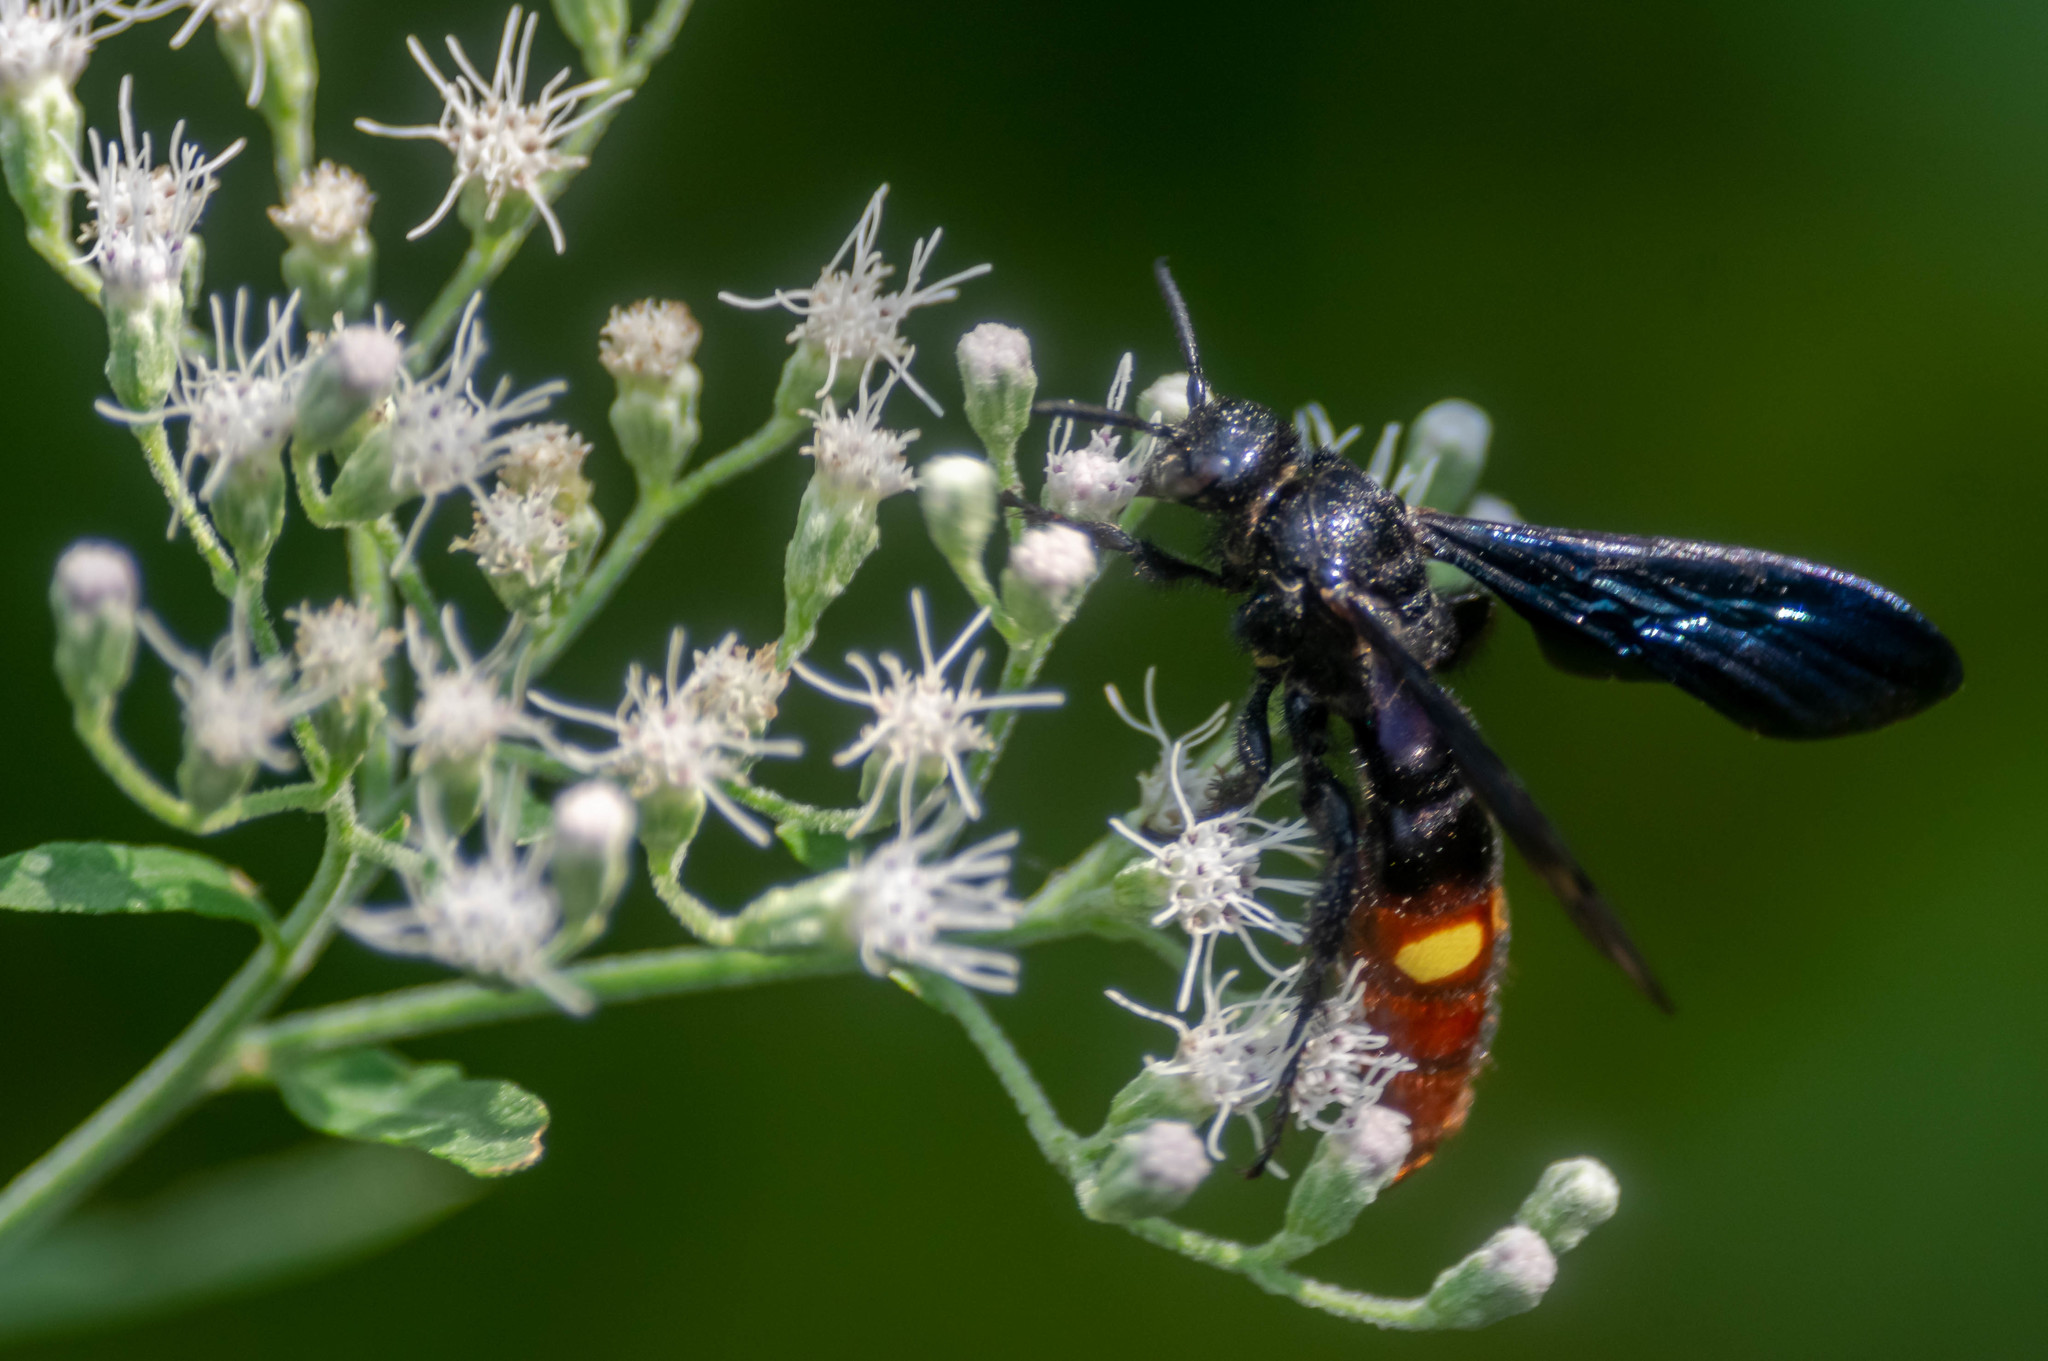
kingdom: Animalia
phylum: Arthropoda
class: Insecta
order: Hymenoptera
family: Scoliidae
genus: Scolia
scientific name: Scolia dubia
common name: Blue-winged scoliid wasp
